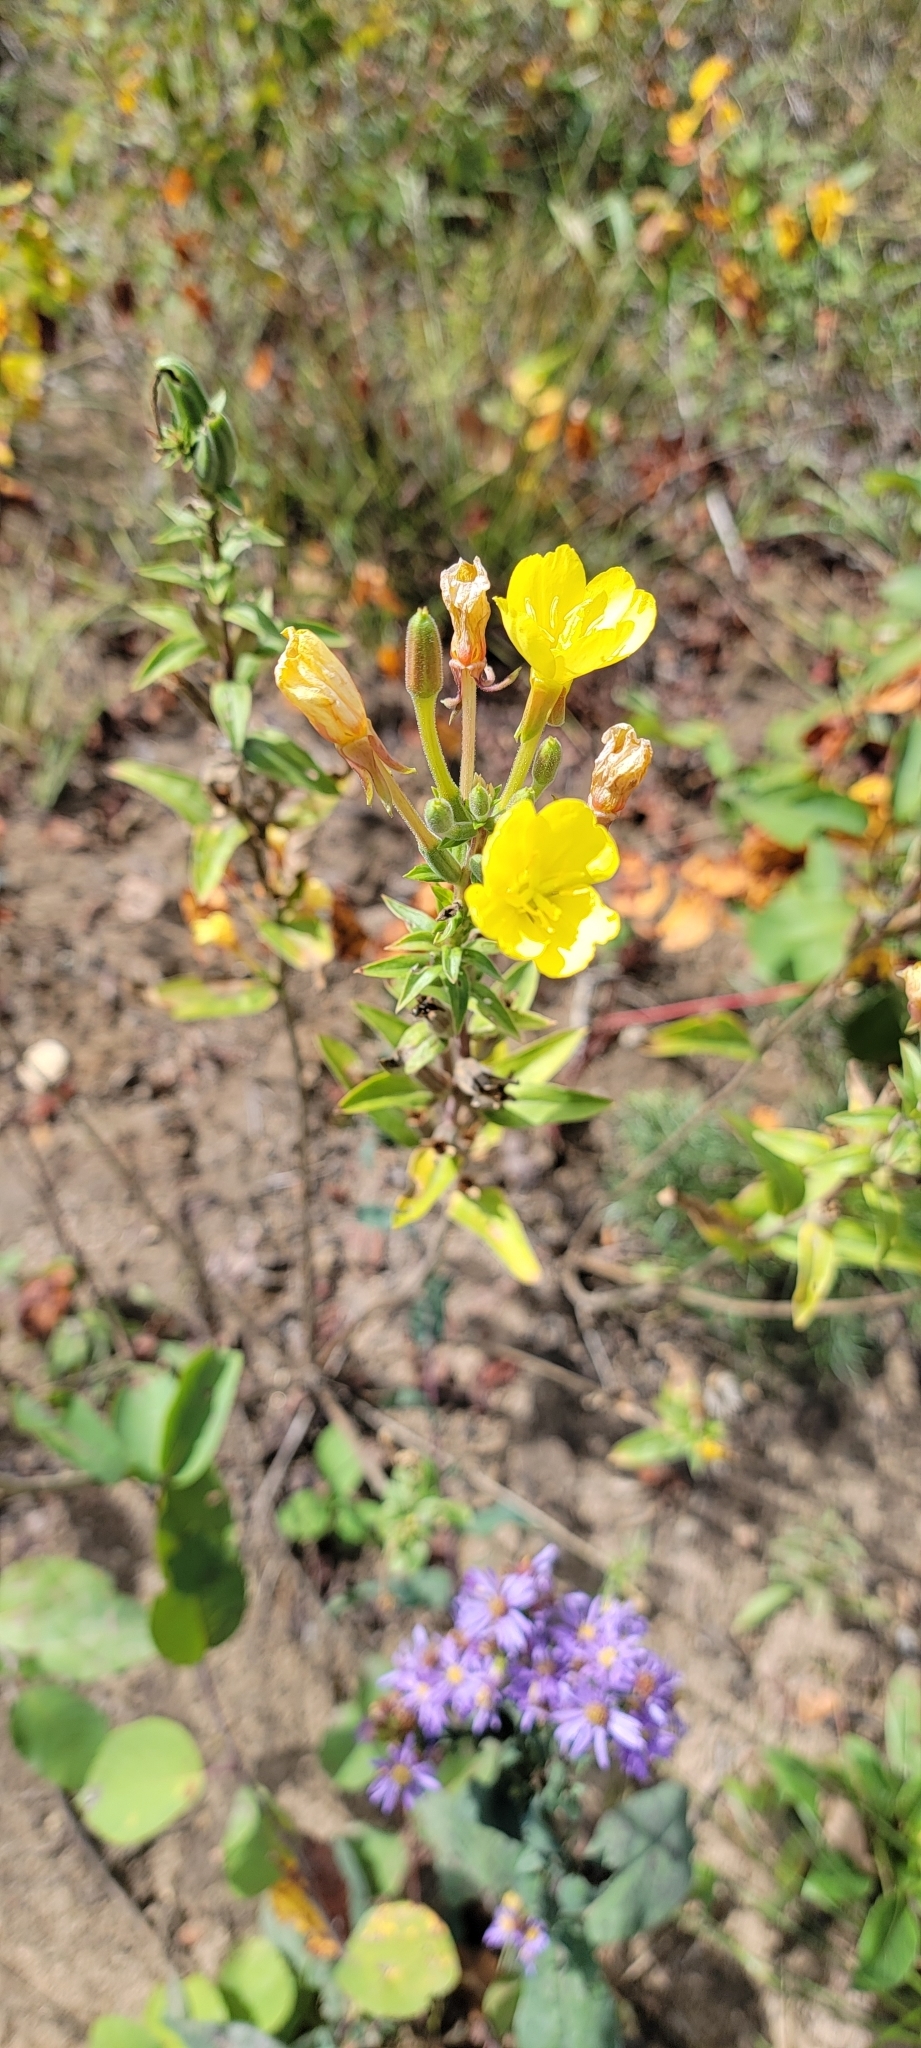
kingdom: Plantae
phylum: Tracheophyta
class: Magnoliopsida
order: Myrtales
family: Onagraceae
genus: Oenothera
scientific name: Oenothera biennis
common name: Common evening-primrose
